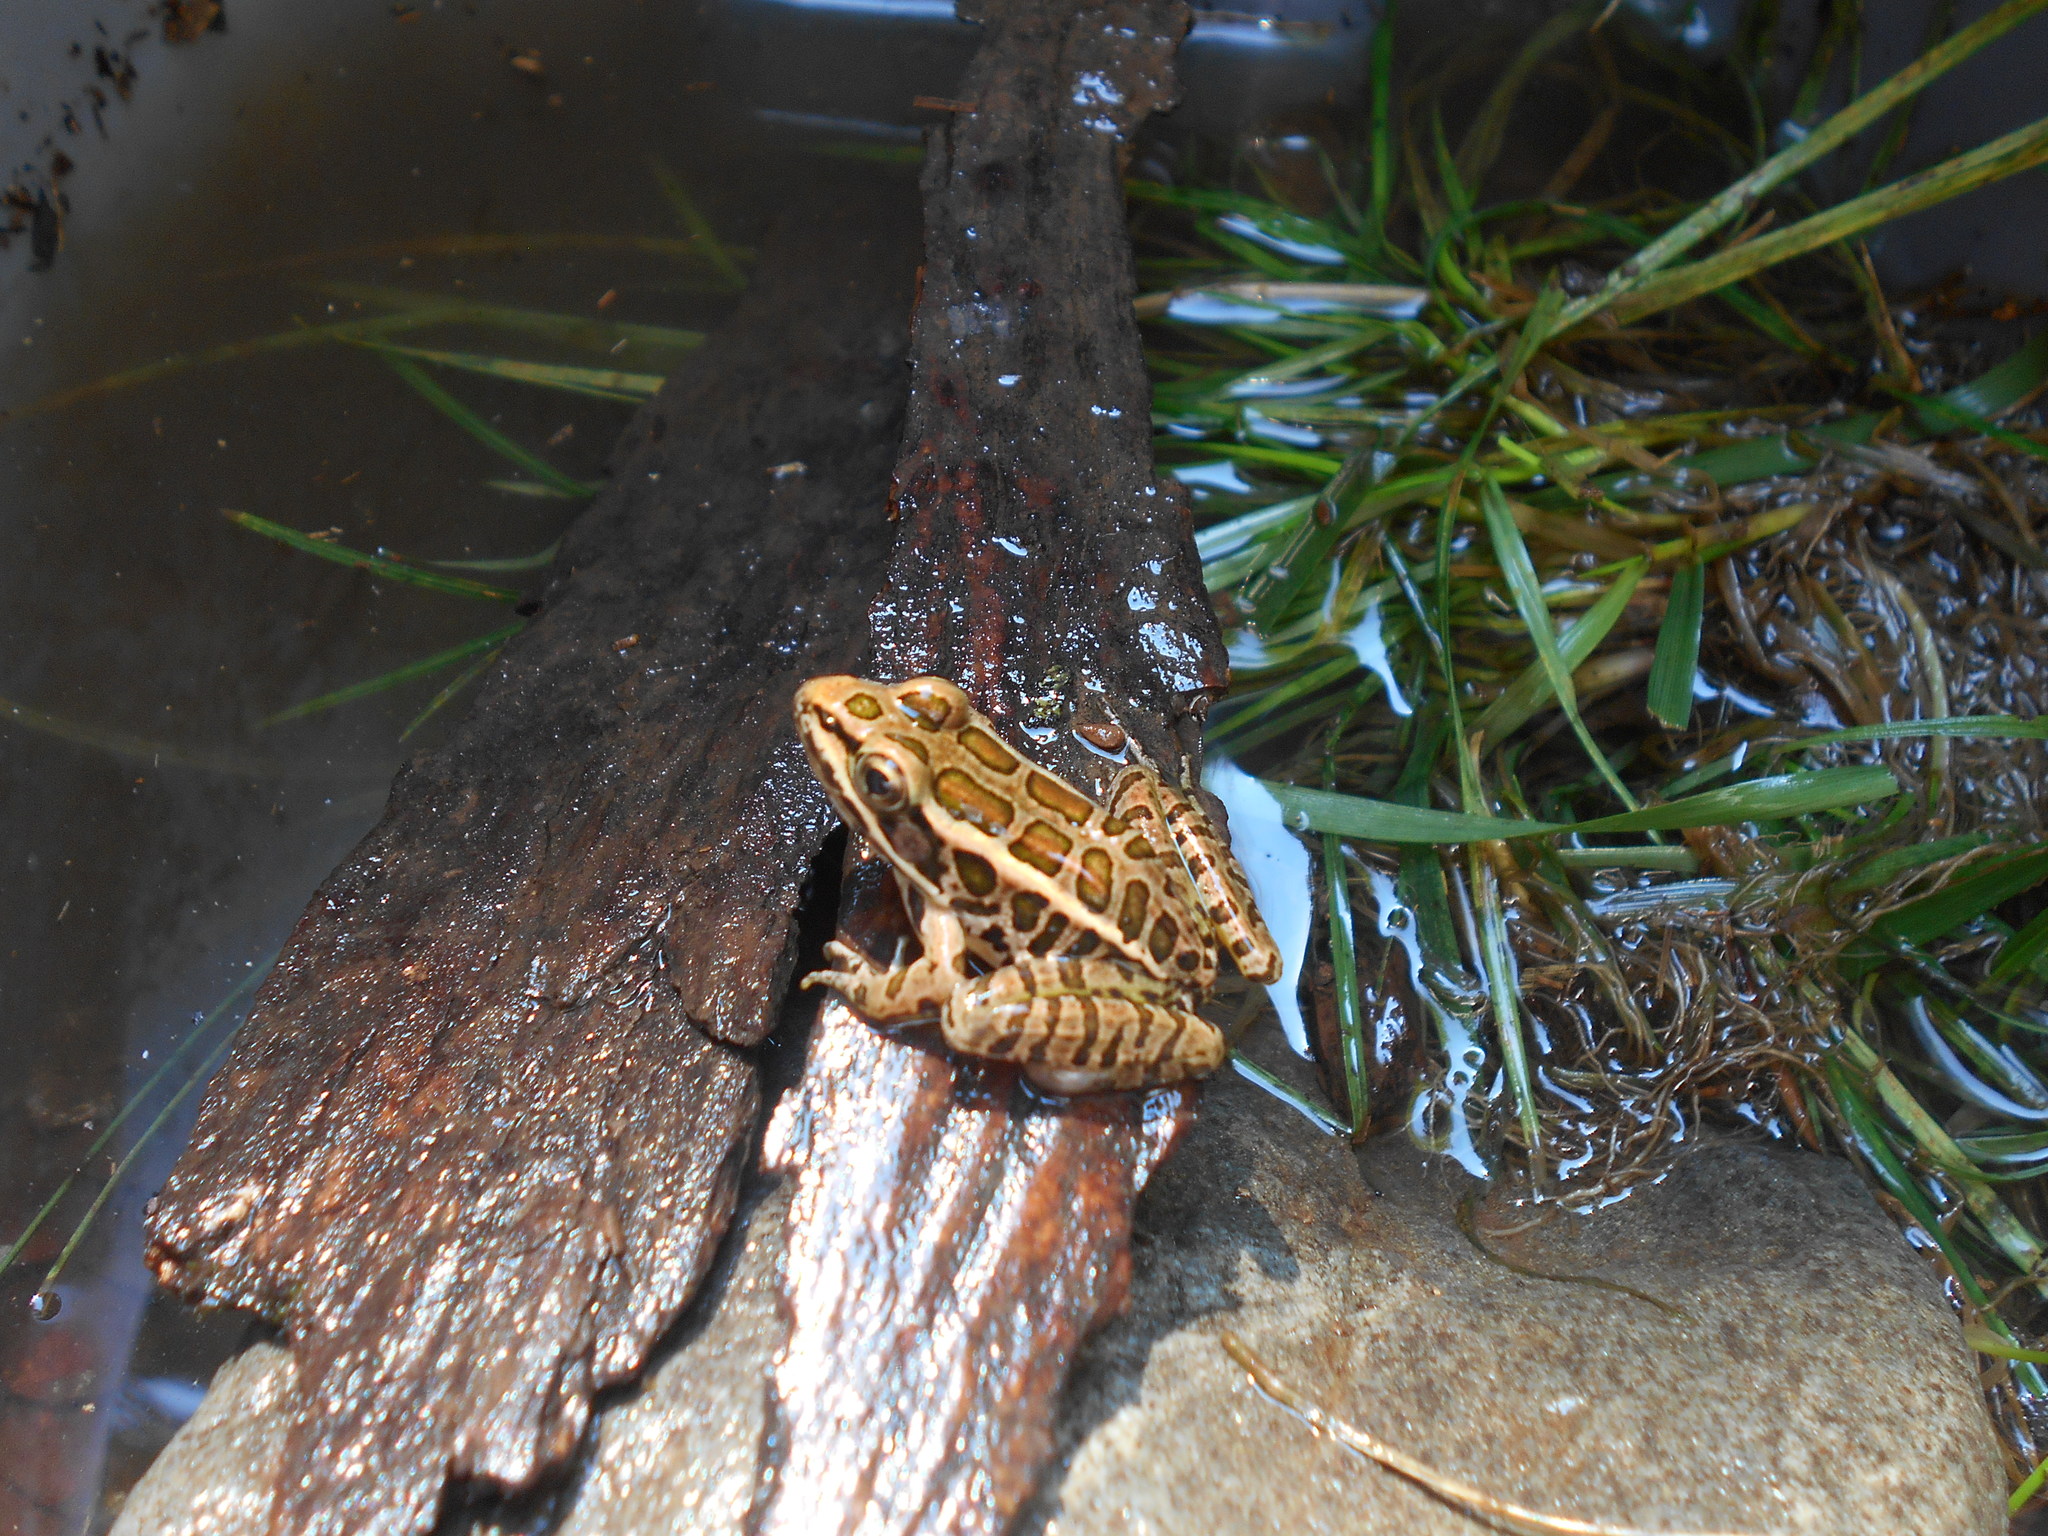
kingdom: Animalia
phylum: Chordata
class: Amphibia
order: Anura
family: Ranidae
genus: Lithobates
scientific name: Lithobates palustris
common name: Pickerel frog
